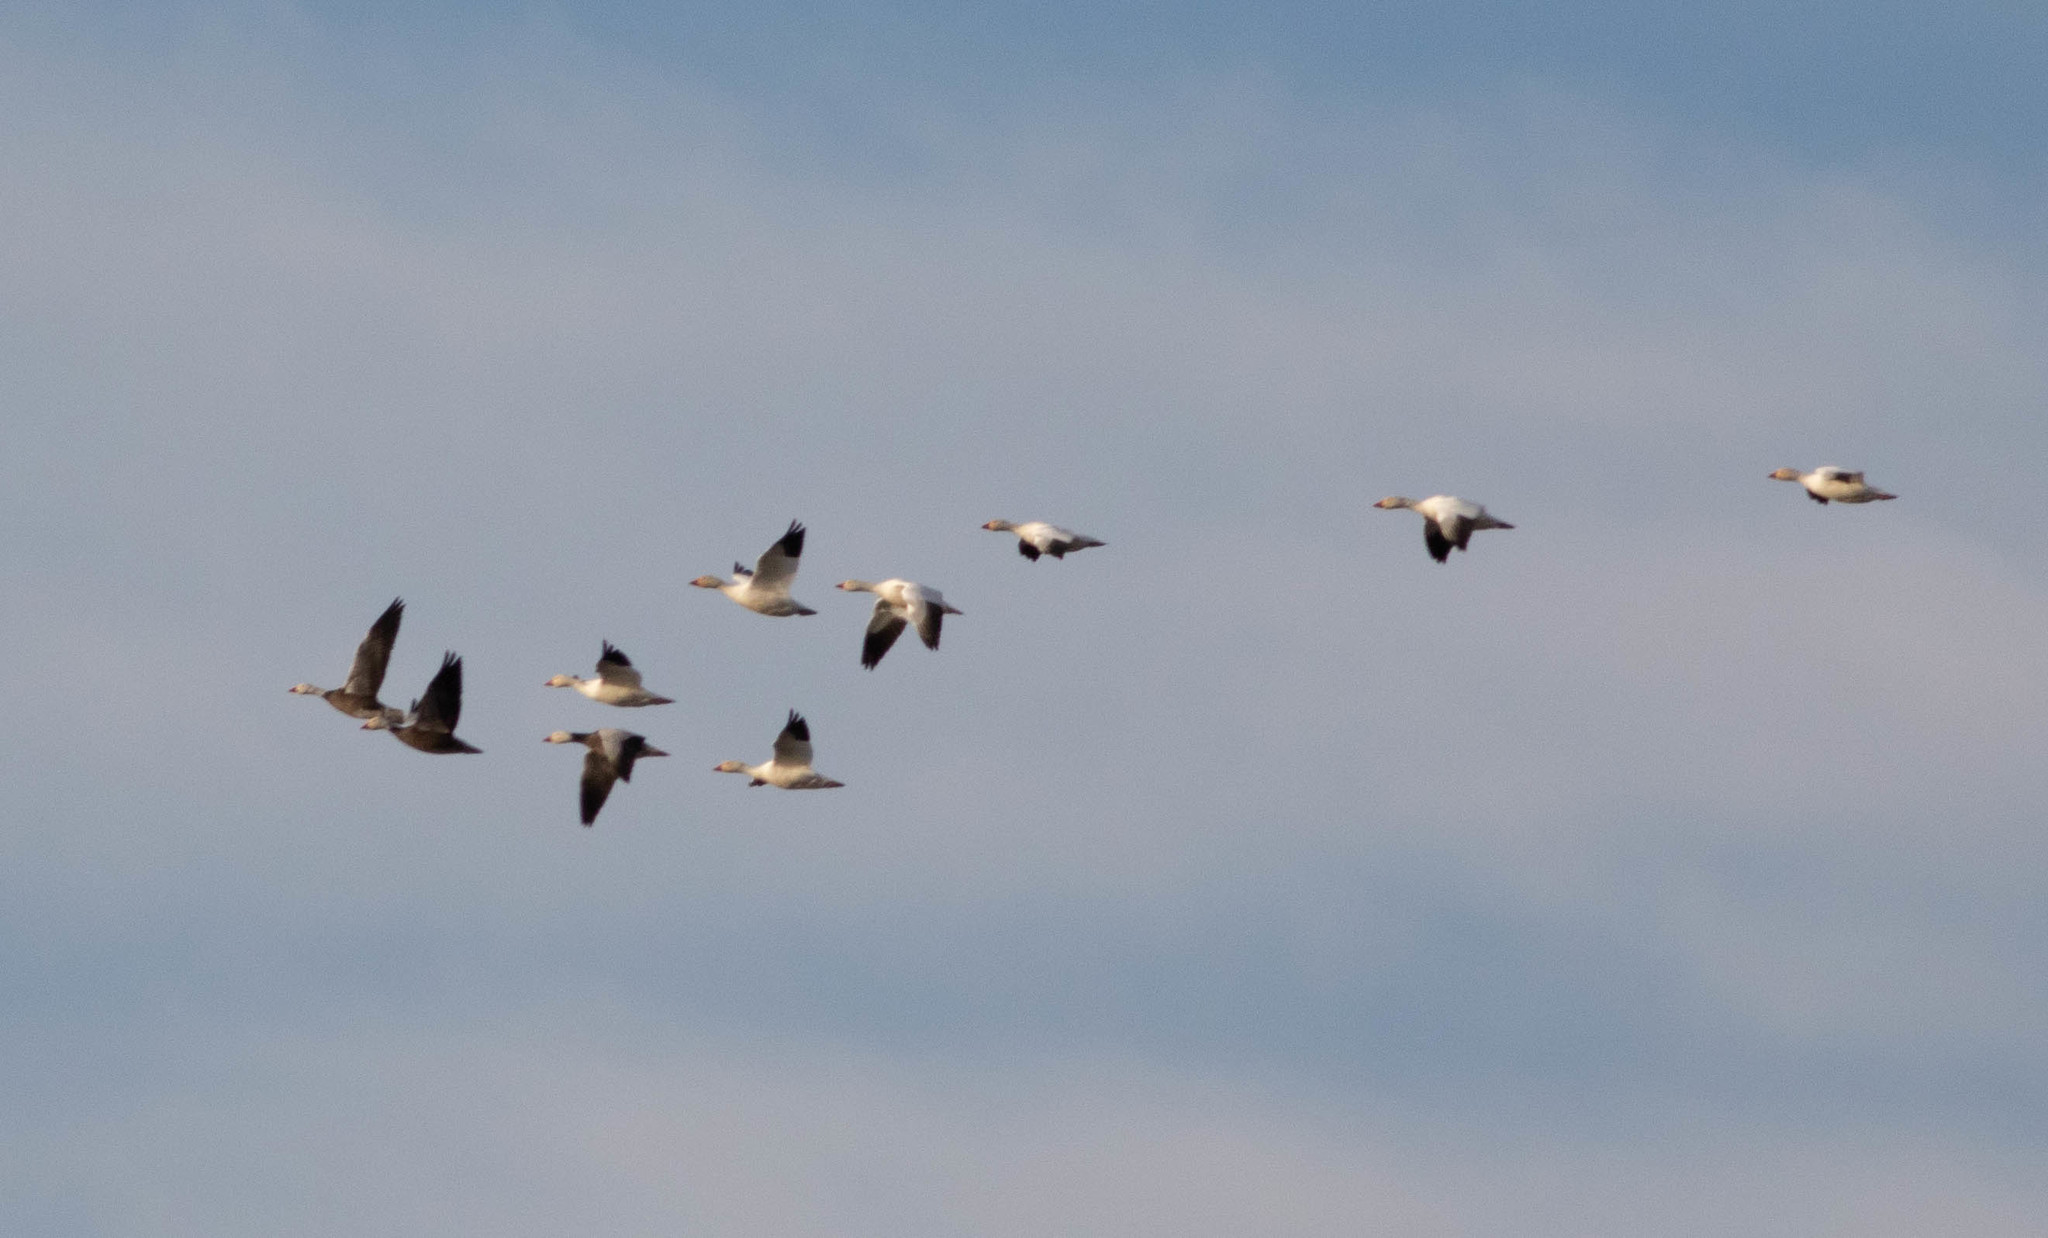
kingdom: Animalia
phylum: Chordata
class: Aves
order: Anseriformes
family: Anatidae
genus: Anser
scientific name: Anser caerulescens
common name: Snow goose
